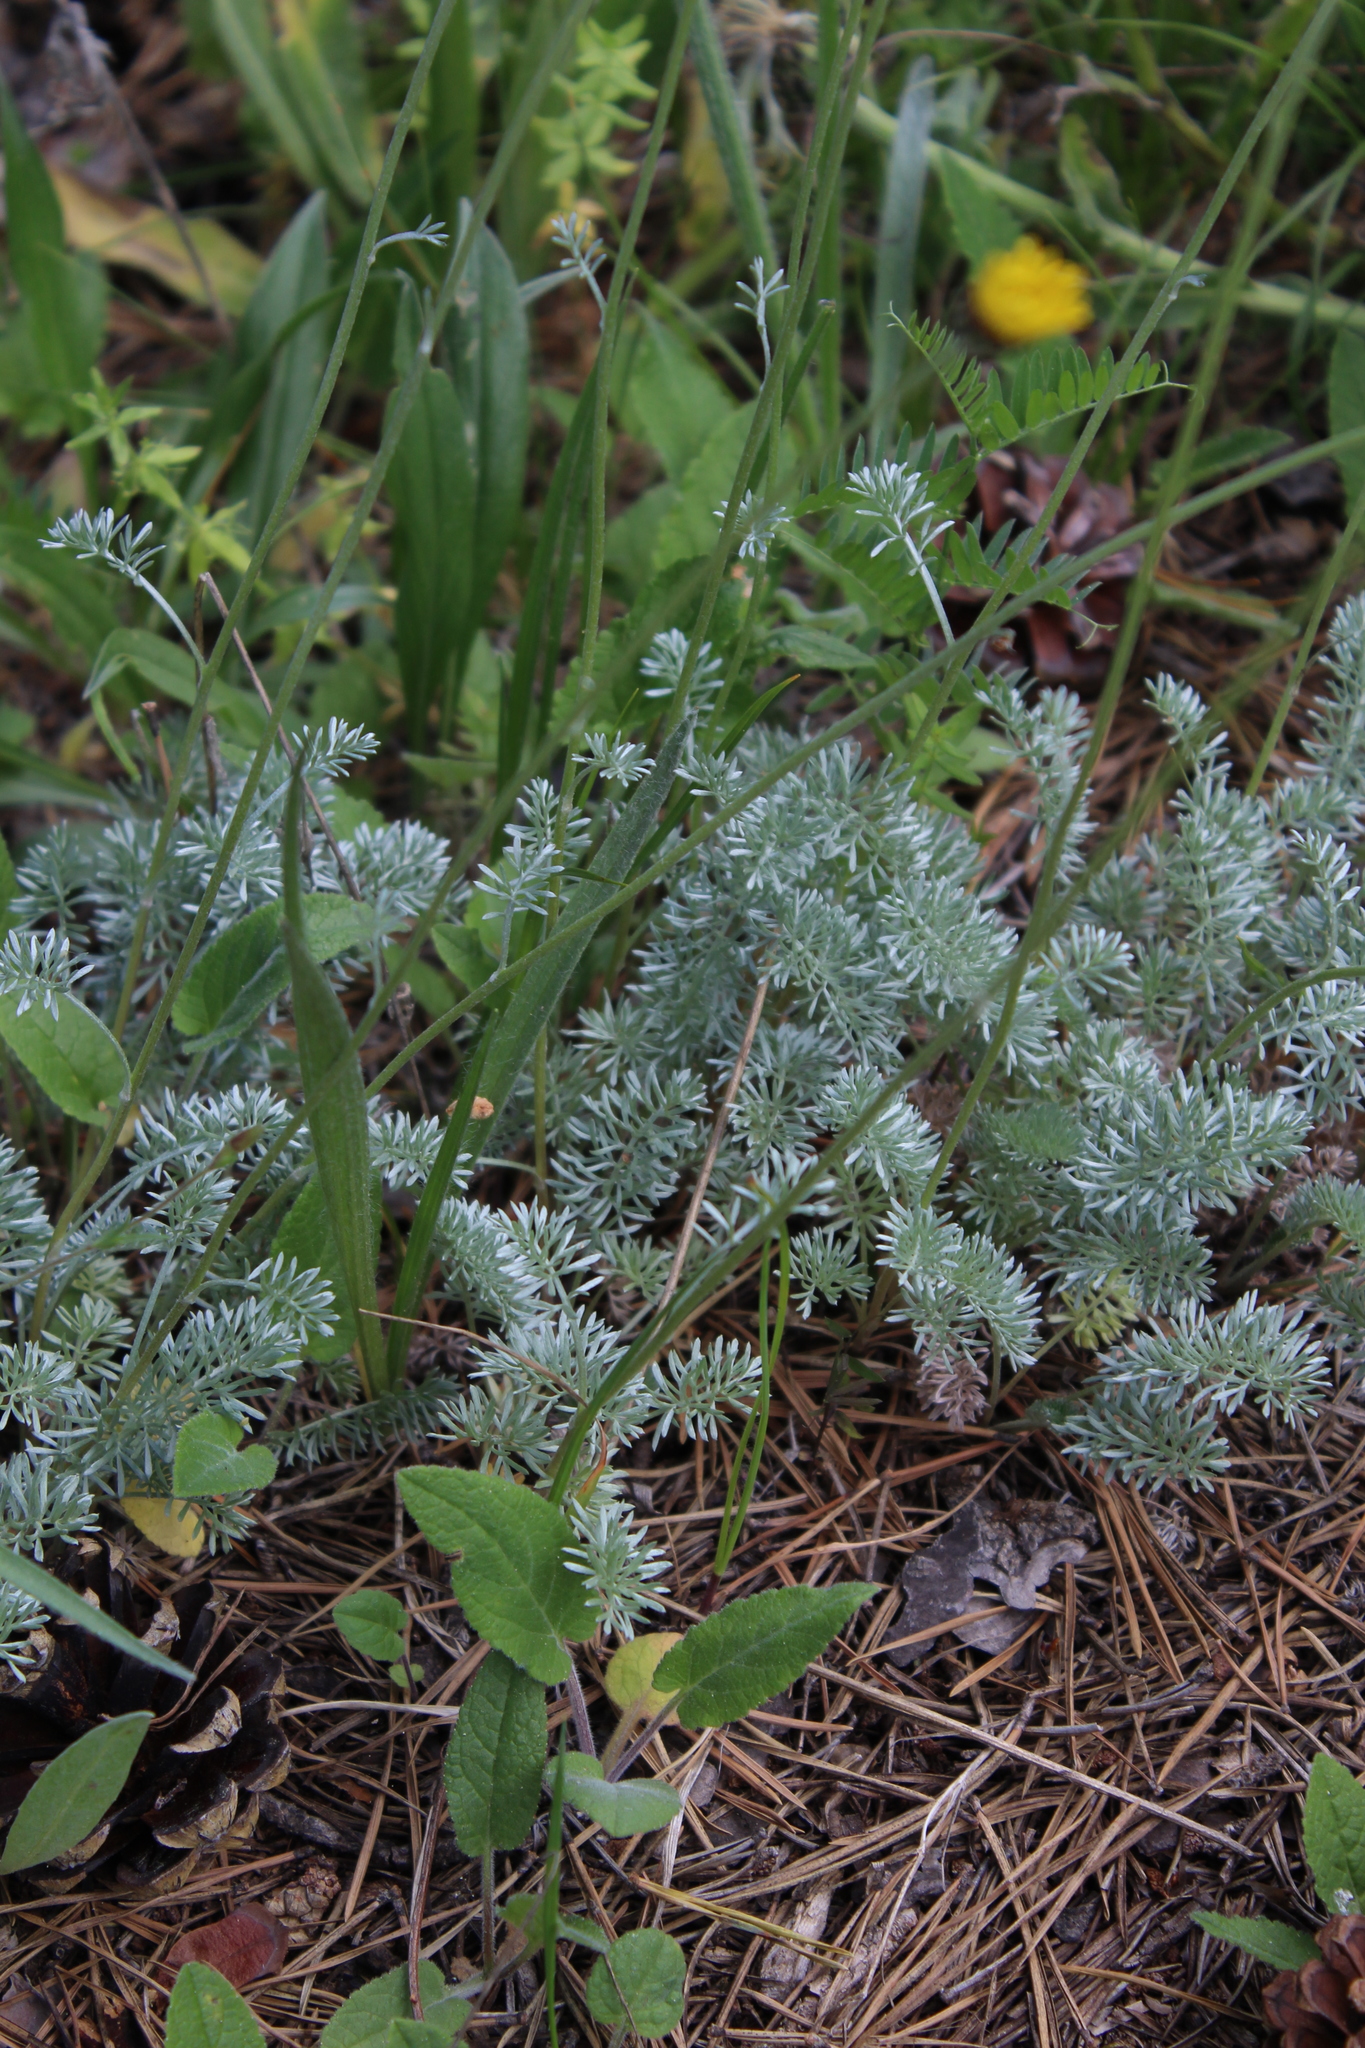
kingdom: Plantae
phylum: Tracheophyta
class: Magnoliopsida
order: Asterales
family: Asteraceae
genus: Archanthemis
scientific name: Archanthemis marschalliana
